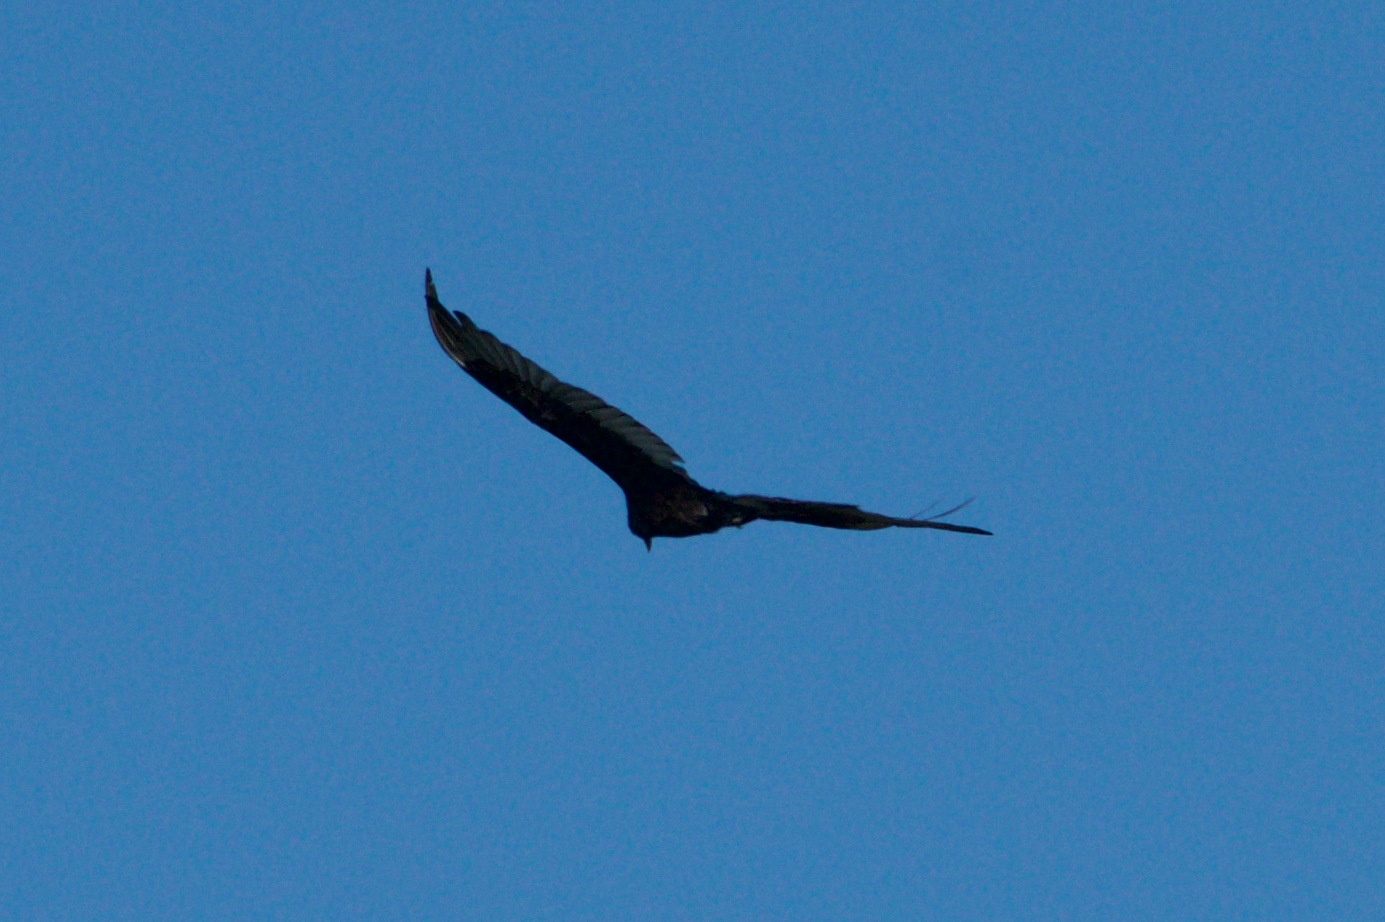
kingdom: Animalia
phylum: Chordata
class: Aves
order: Accipitriformes
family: Cathartidae
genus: Cathartes
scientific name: Cathartes aura
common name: Turkey vulture
